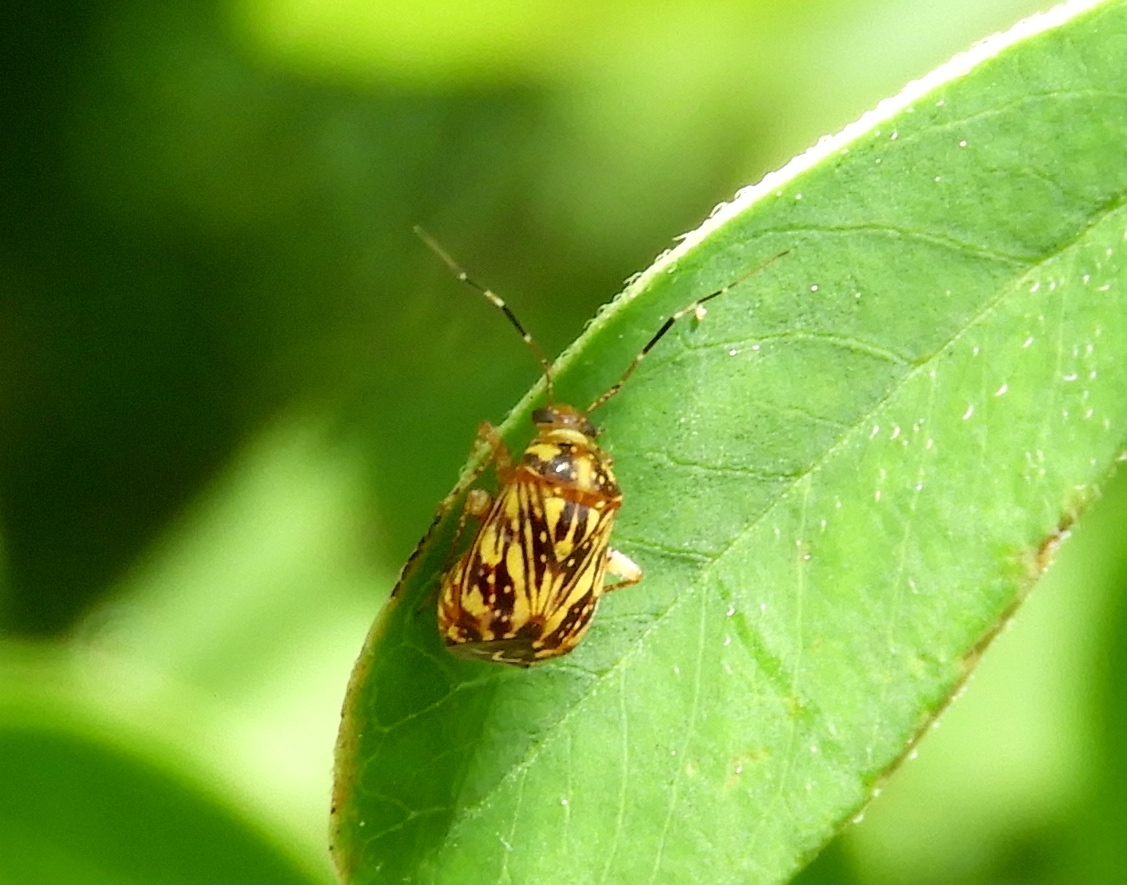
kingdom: Animalia
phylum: Arthropoda
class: Insecta
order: Hemiptera
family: Miridae
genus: Taedia
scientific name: Taedia
